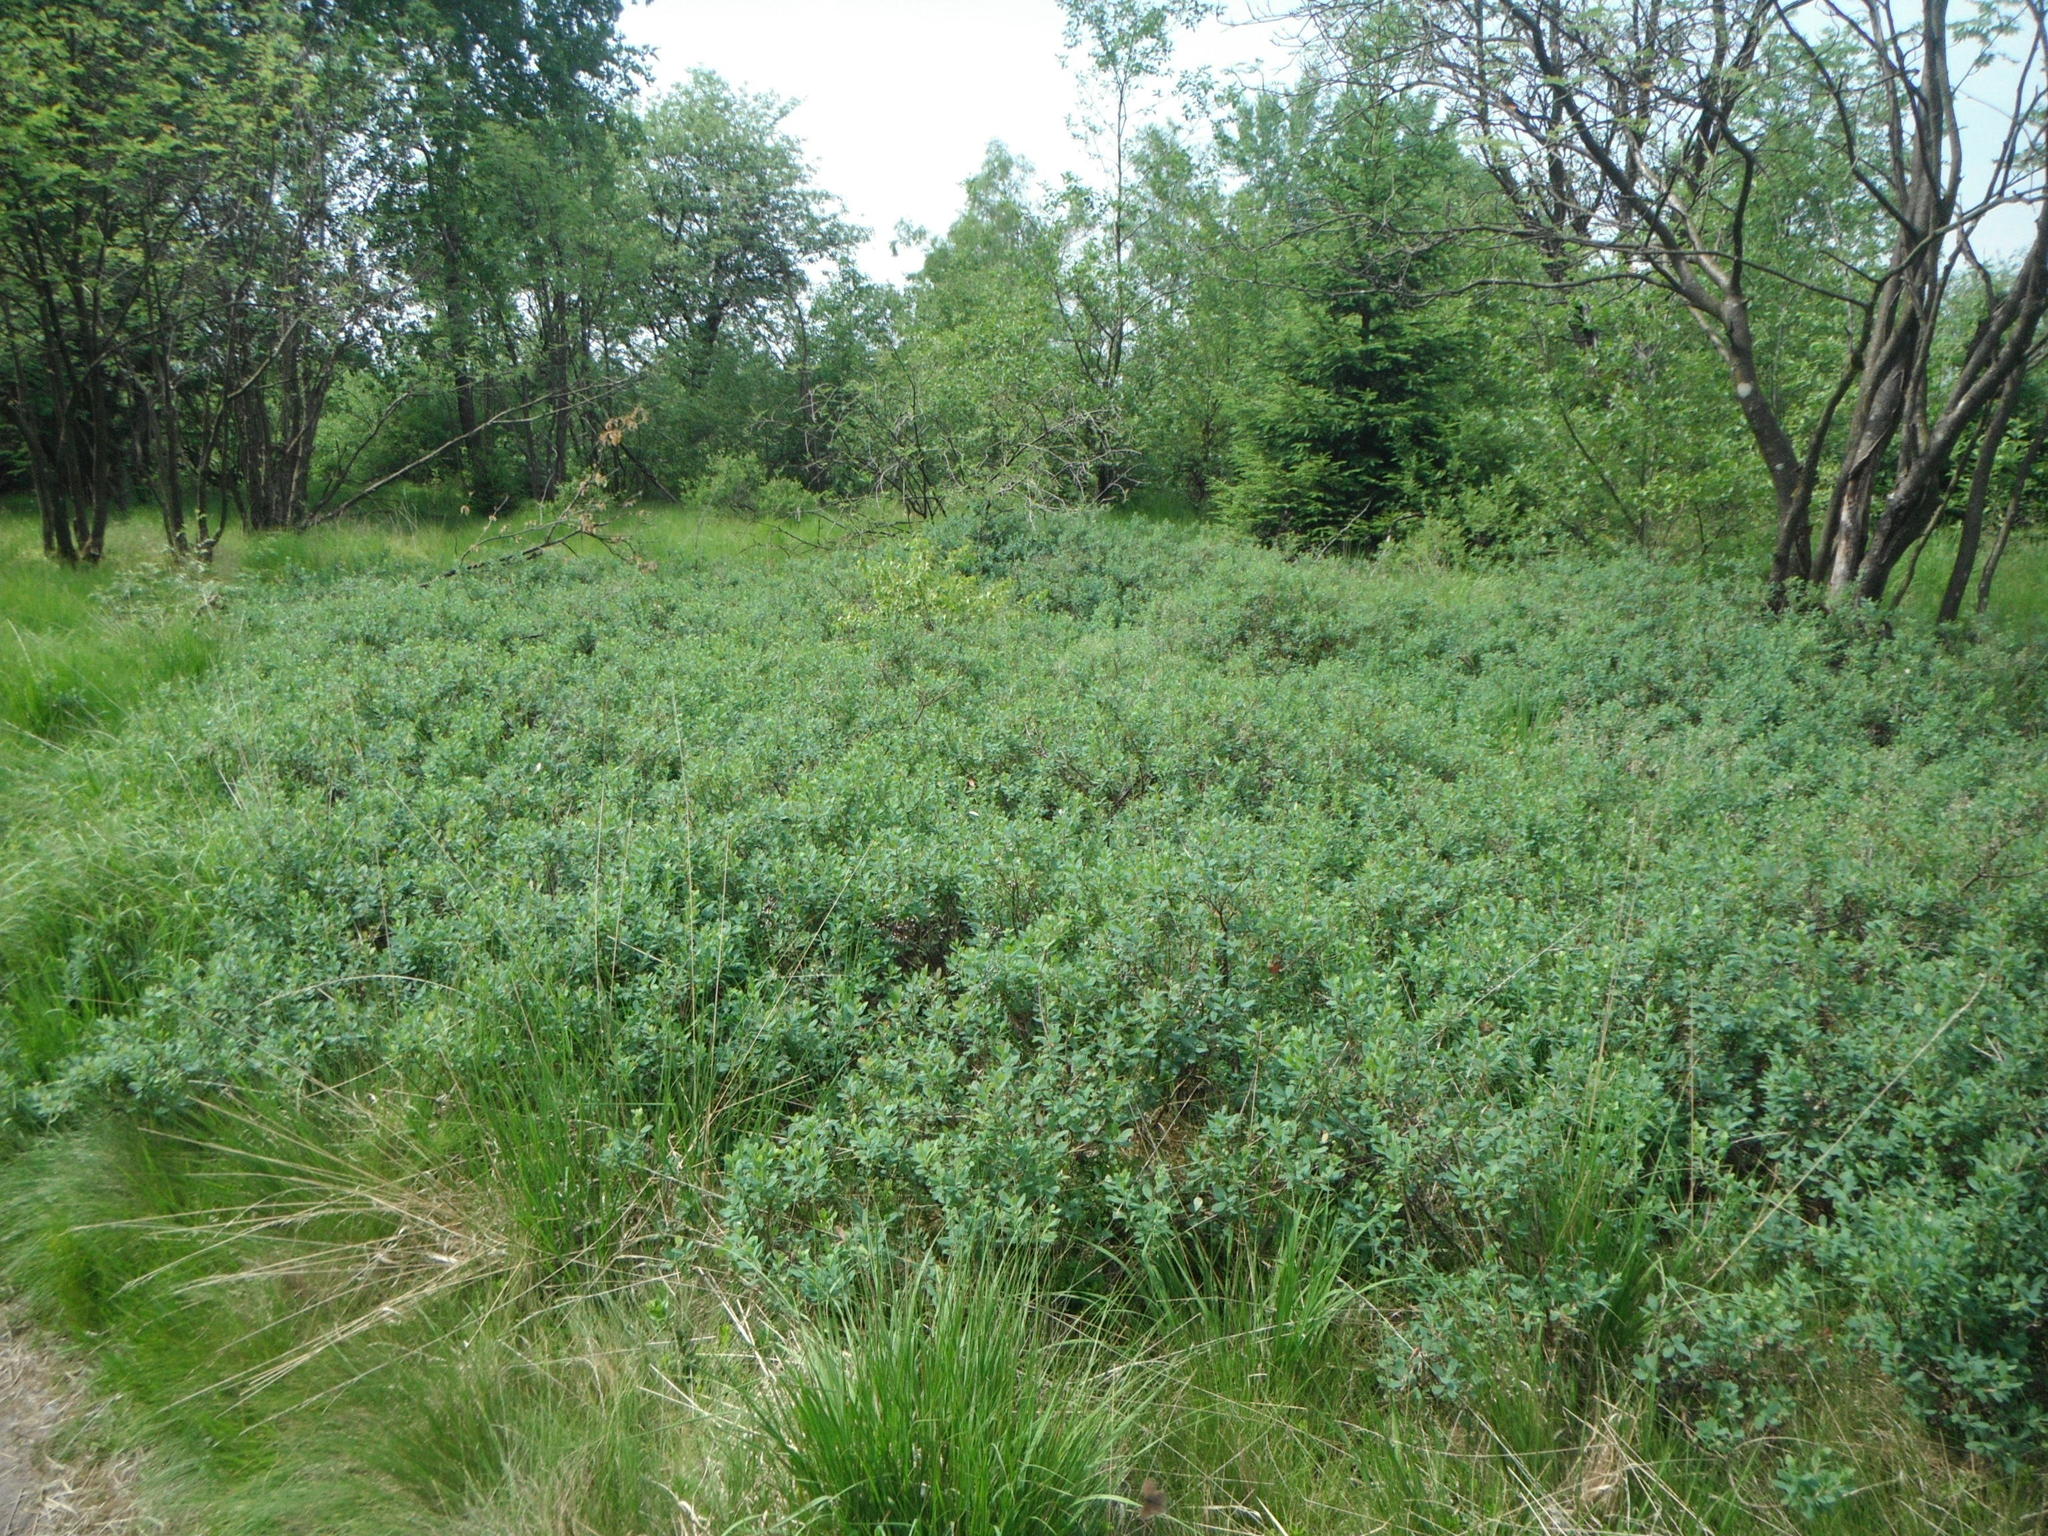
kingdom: Plantae
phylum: Tracheophyta
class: Magnoliopsida
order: Fagales
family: Myricaceae
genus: Myrica
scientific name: Myrica gale
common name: Sweet gale
